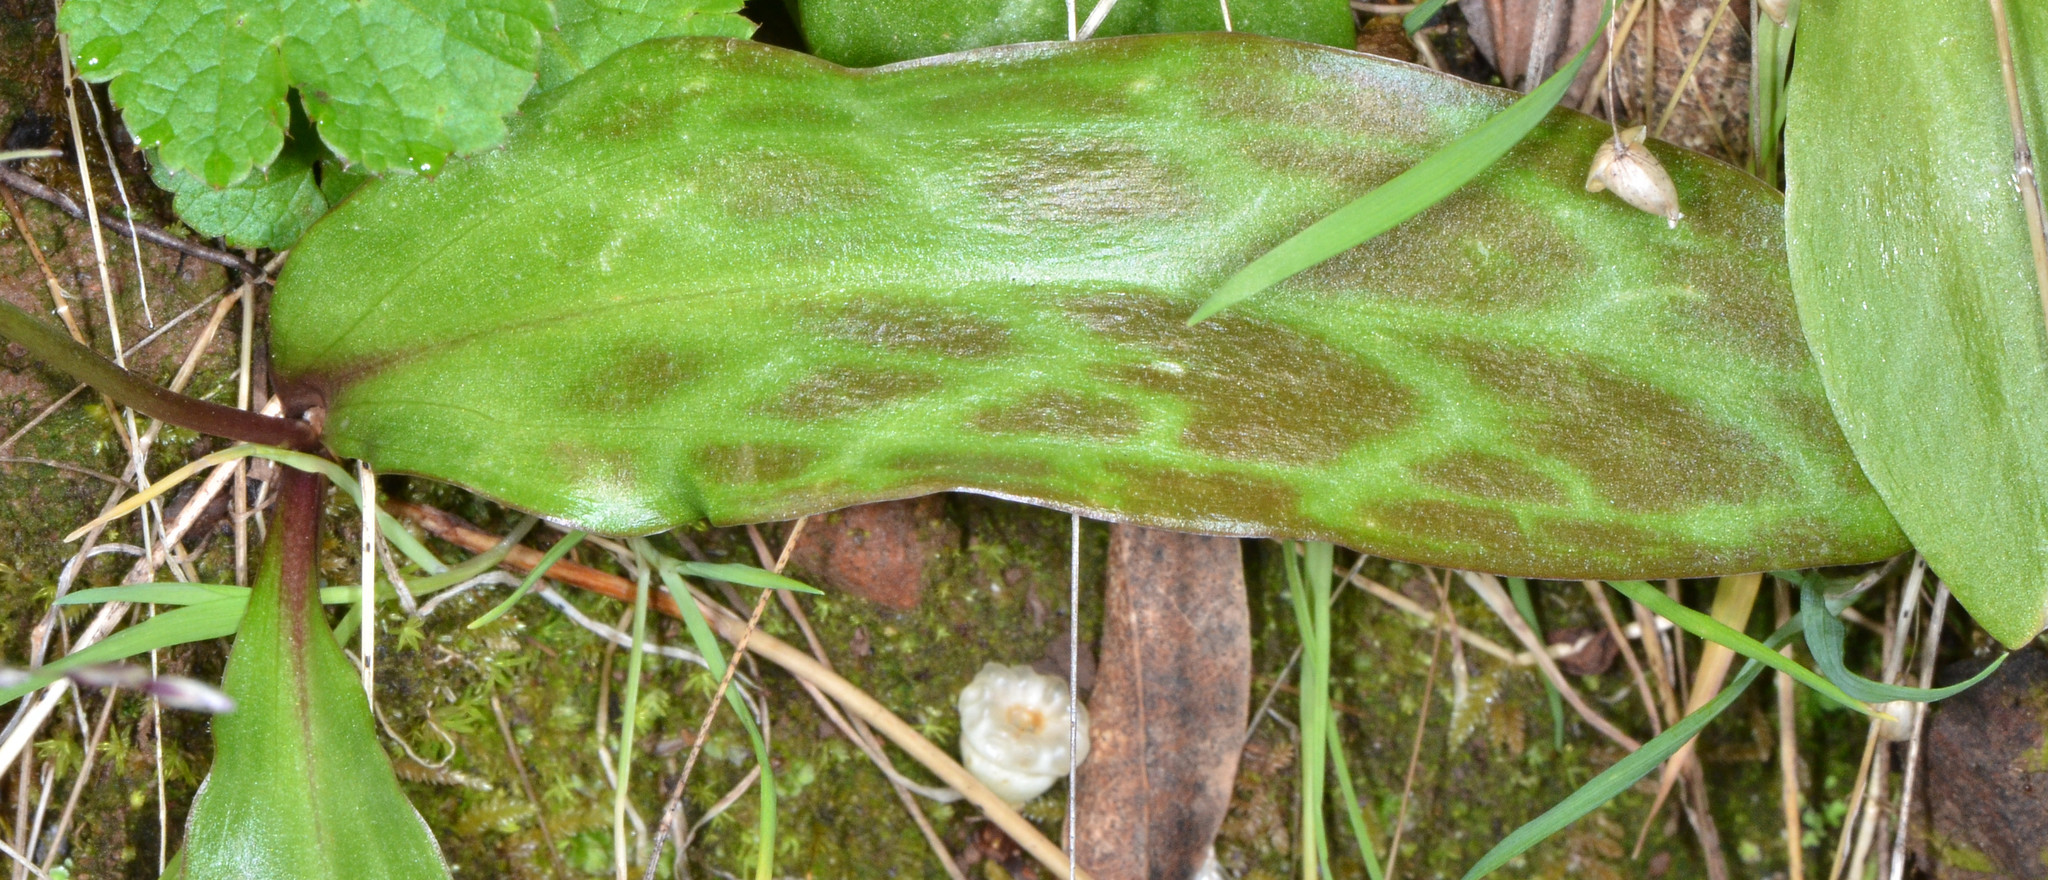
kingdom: Plantae
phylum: Tracheophyta
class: Liliopsida
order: Liliales
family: Liliaceae
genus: Erythronium
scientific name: Erythronium californicum
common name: Fawn-lily
